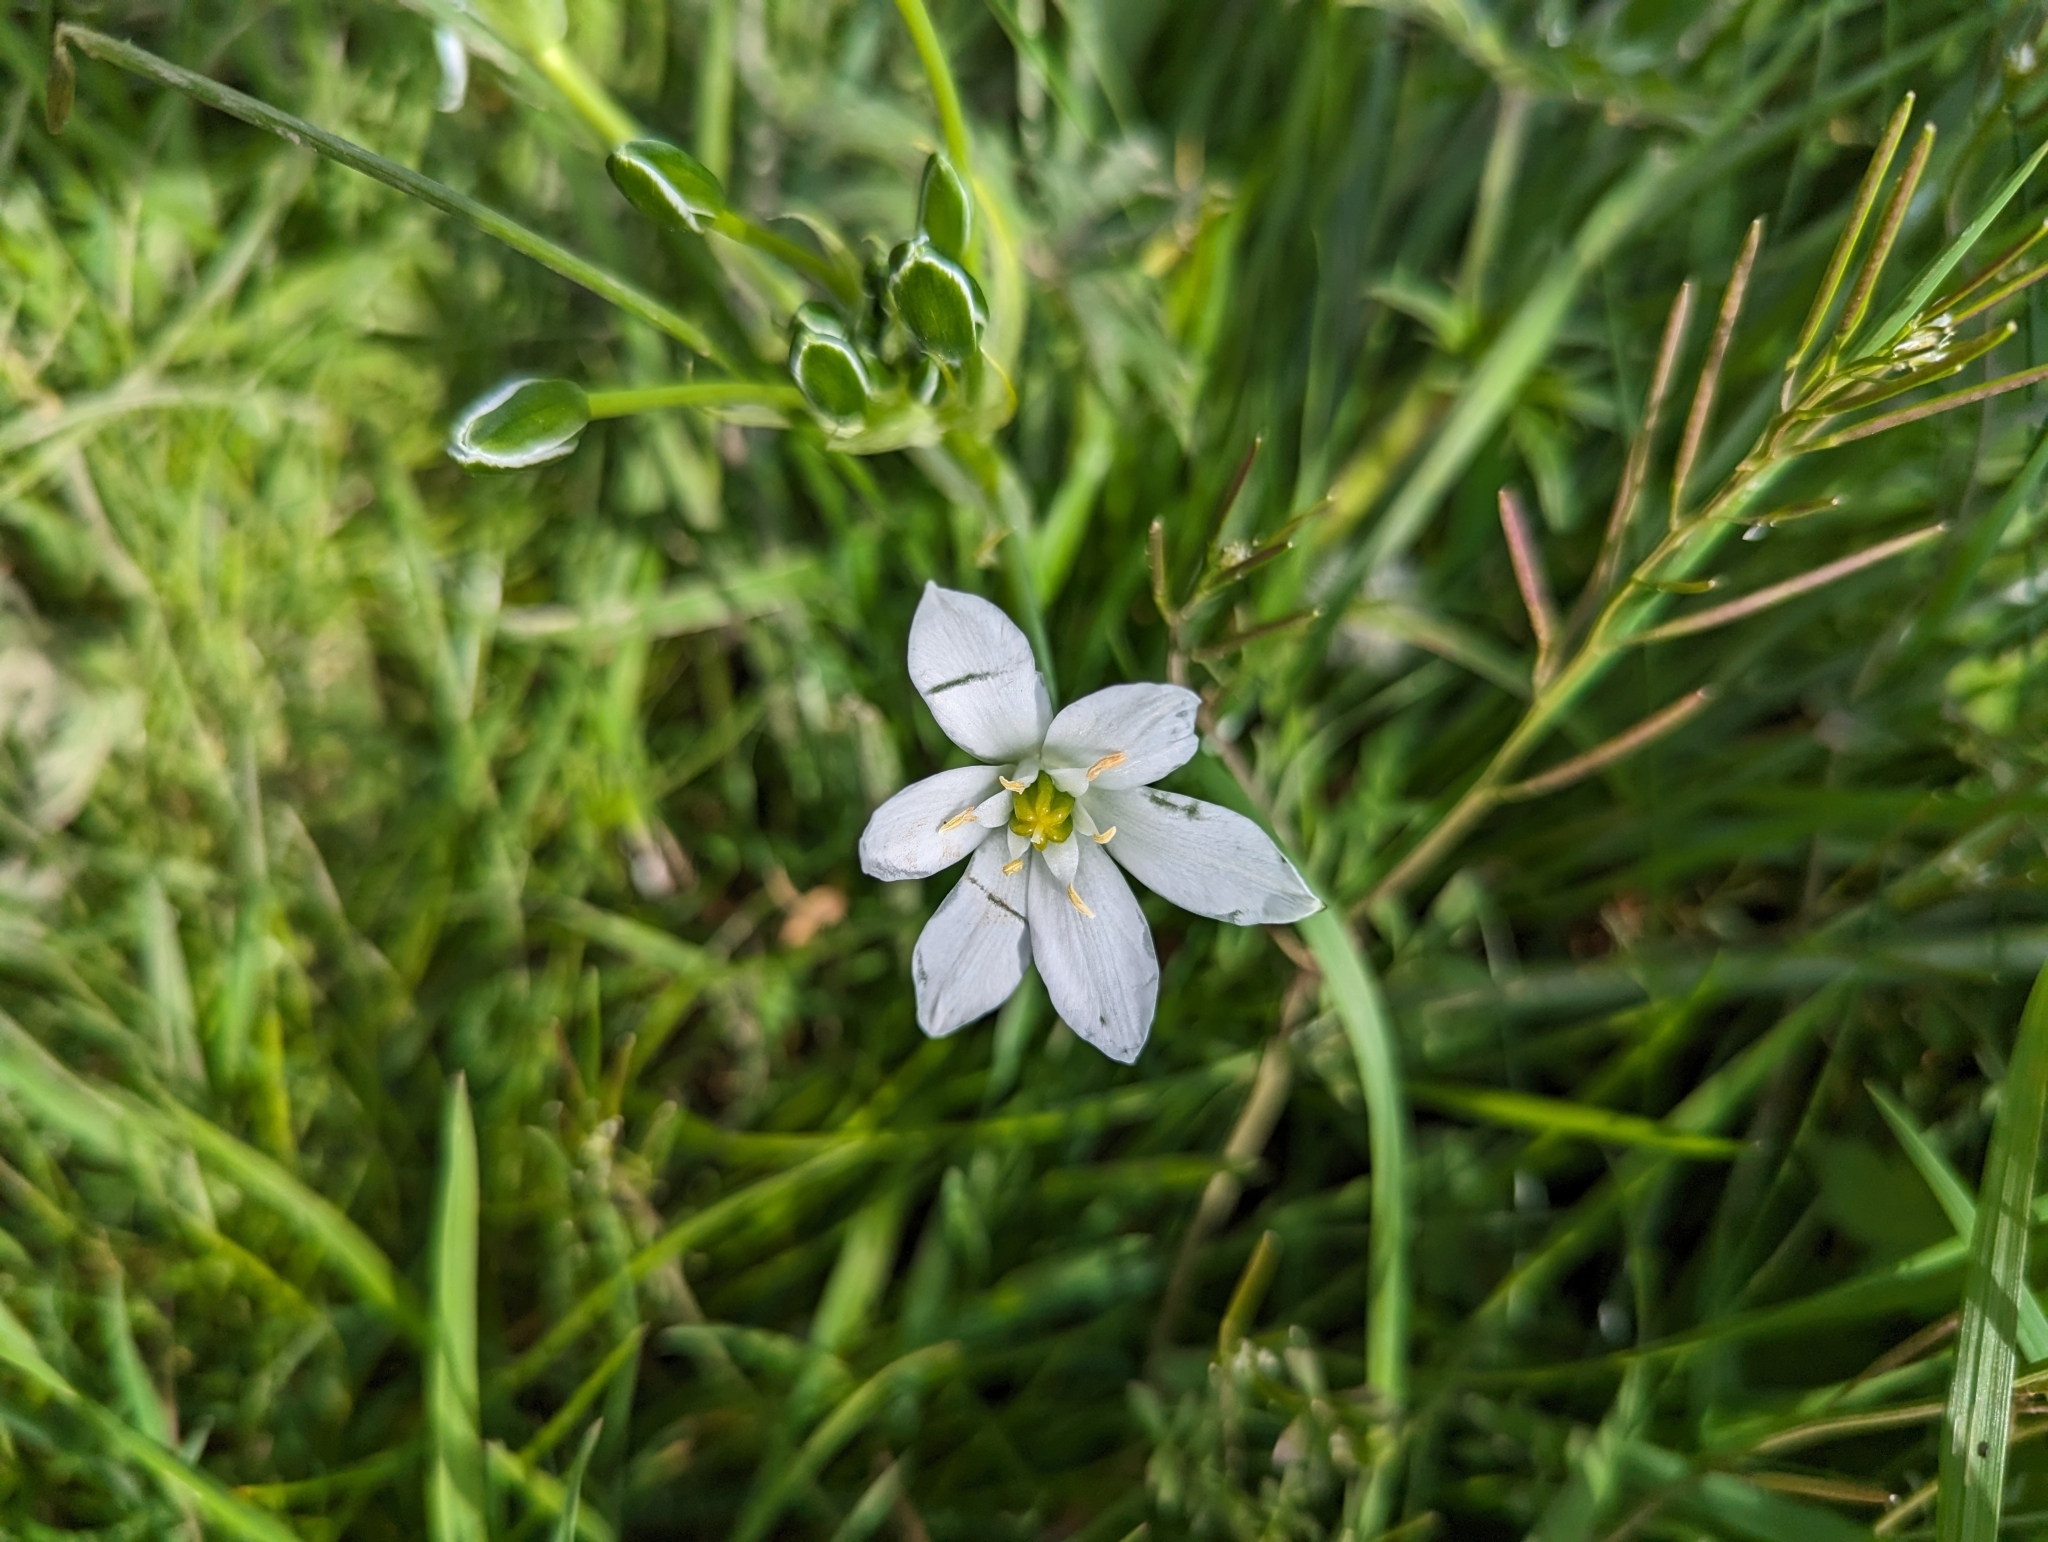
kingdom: Plantae
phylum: Tracheophyta
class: Liliopsida
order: Asparagales
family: Asparagaceae
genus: Ornithogalum
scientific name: Ornithogalum umbellatum
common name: Garden star-of-bethlehem
